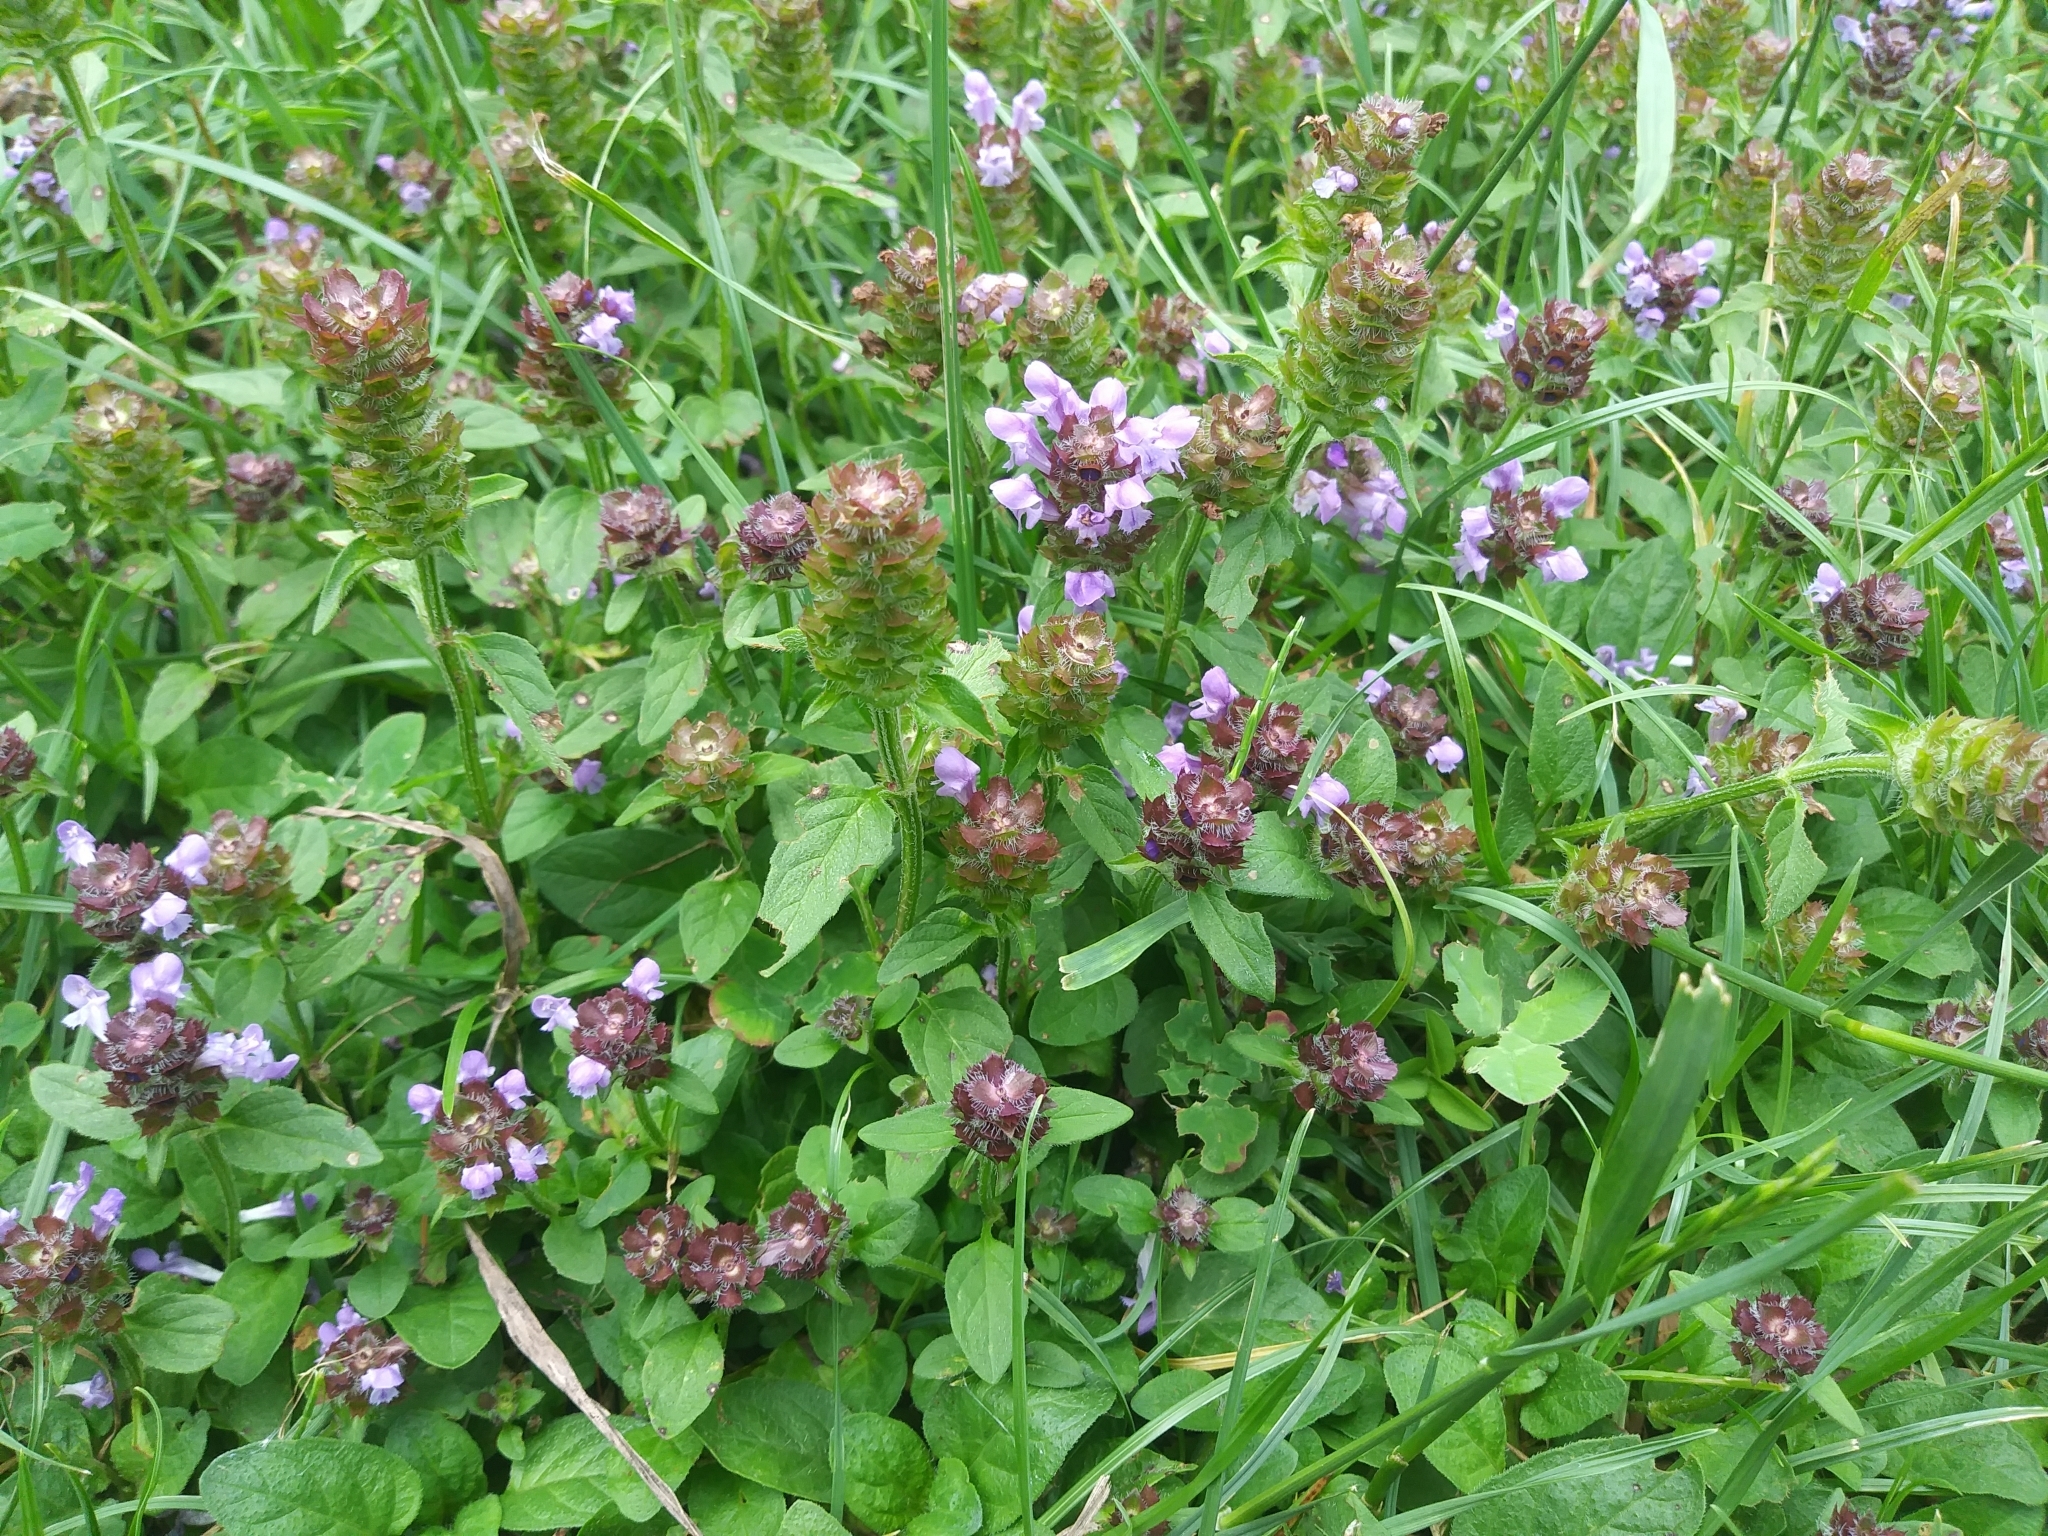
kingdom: Plantae
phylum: Tracheophyta
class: Magnoliopsida
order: Lamiales
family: Lamiaceae
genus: Prunella
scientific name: Prunella vulgaris
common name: Heal-all
